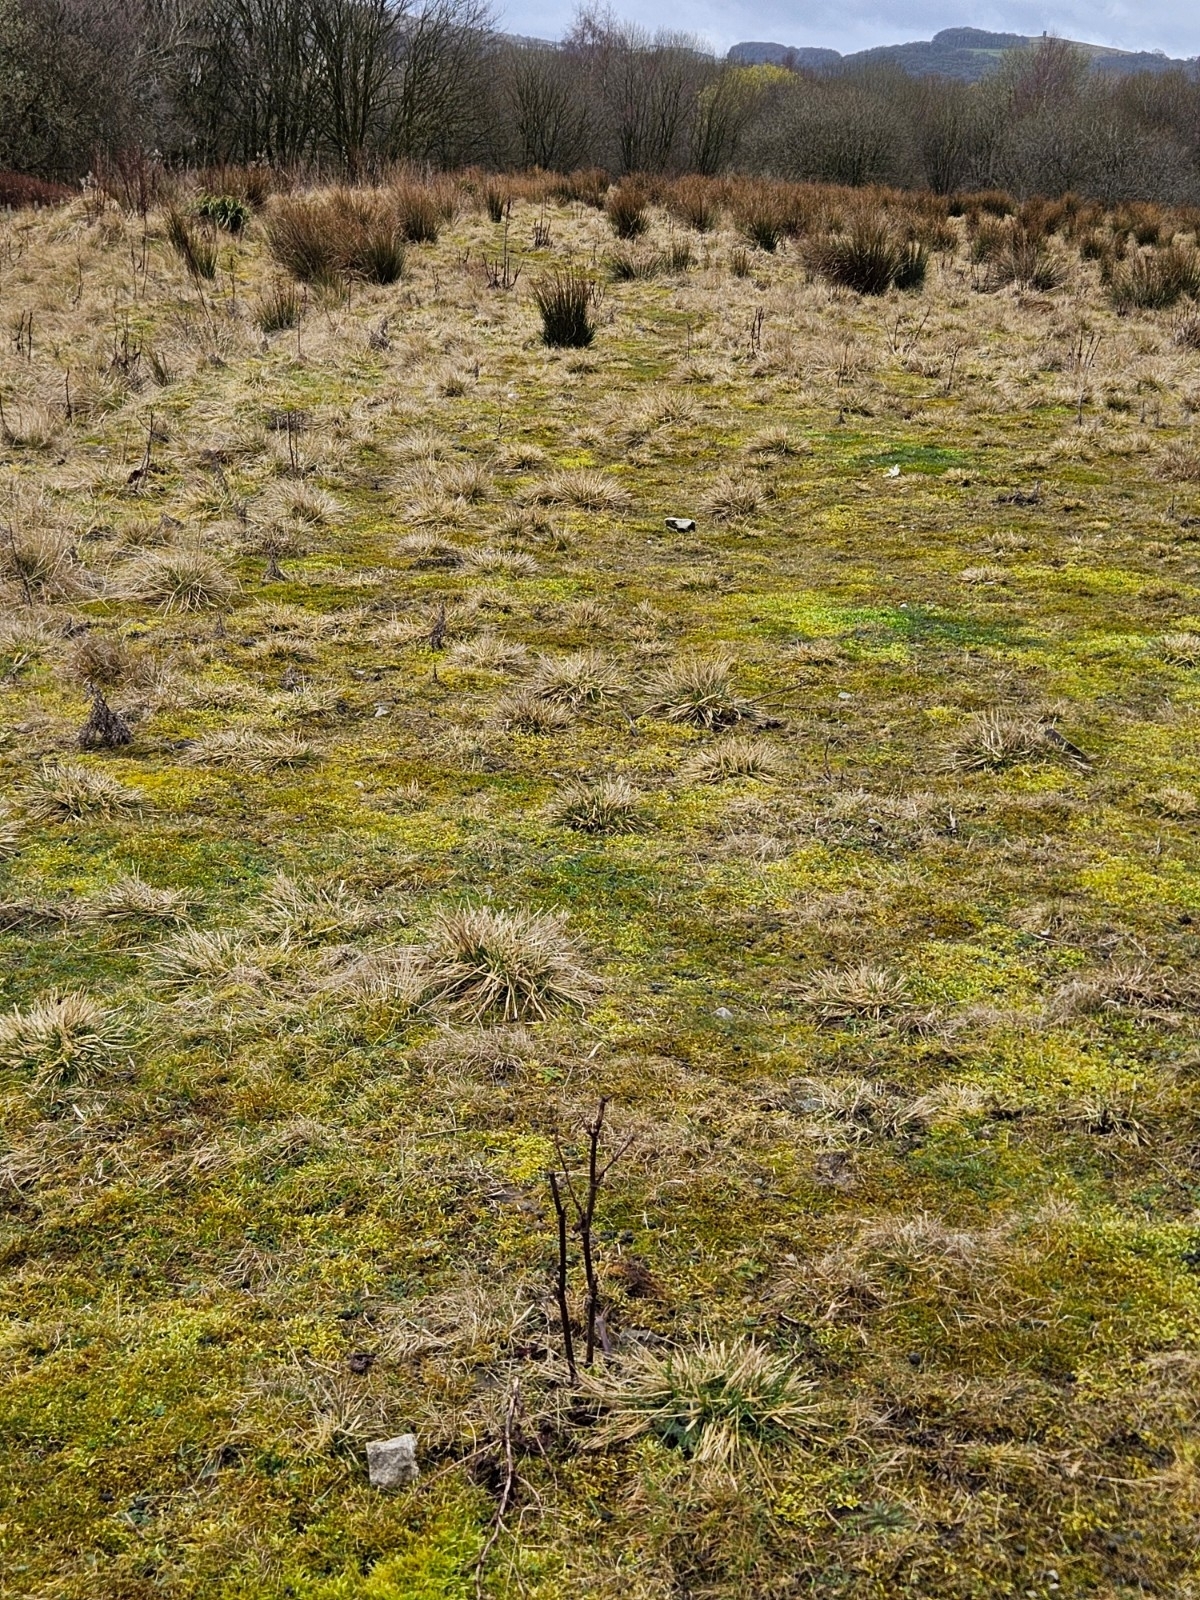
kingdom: Plantae
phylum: Bryophyta
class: Bryopsida
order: Hypnales
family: Brachytheciaceae
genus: Brachythecium
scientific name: Brachythecium albicans
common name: Whitish ragged moss
